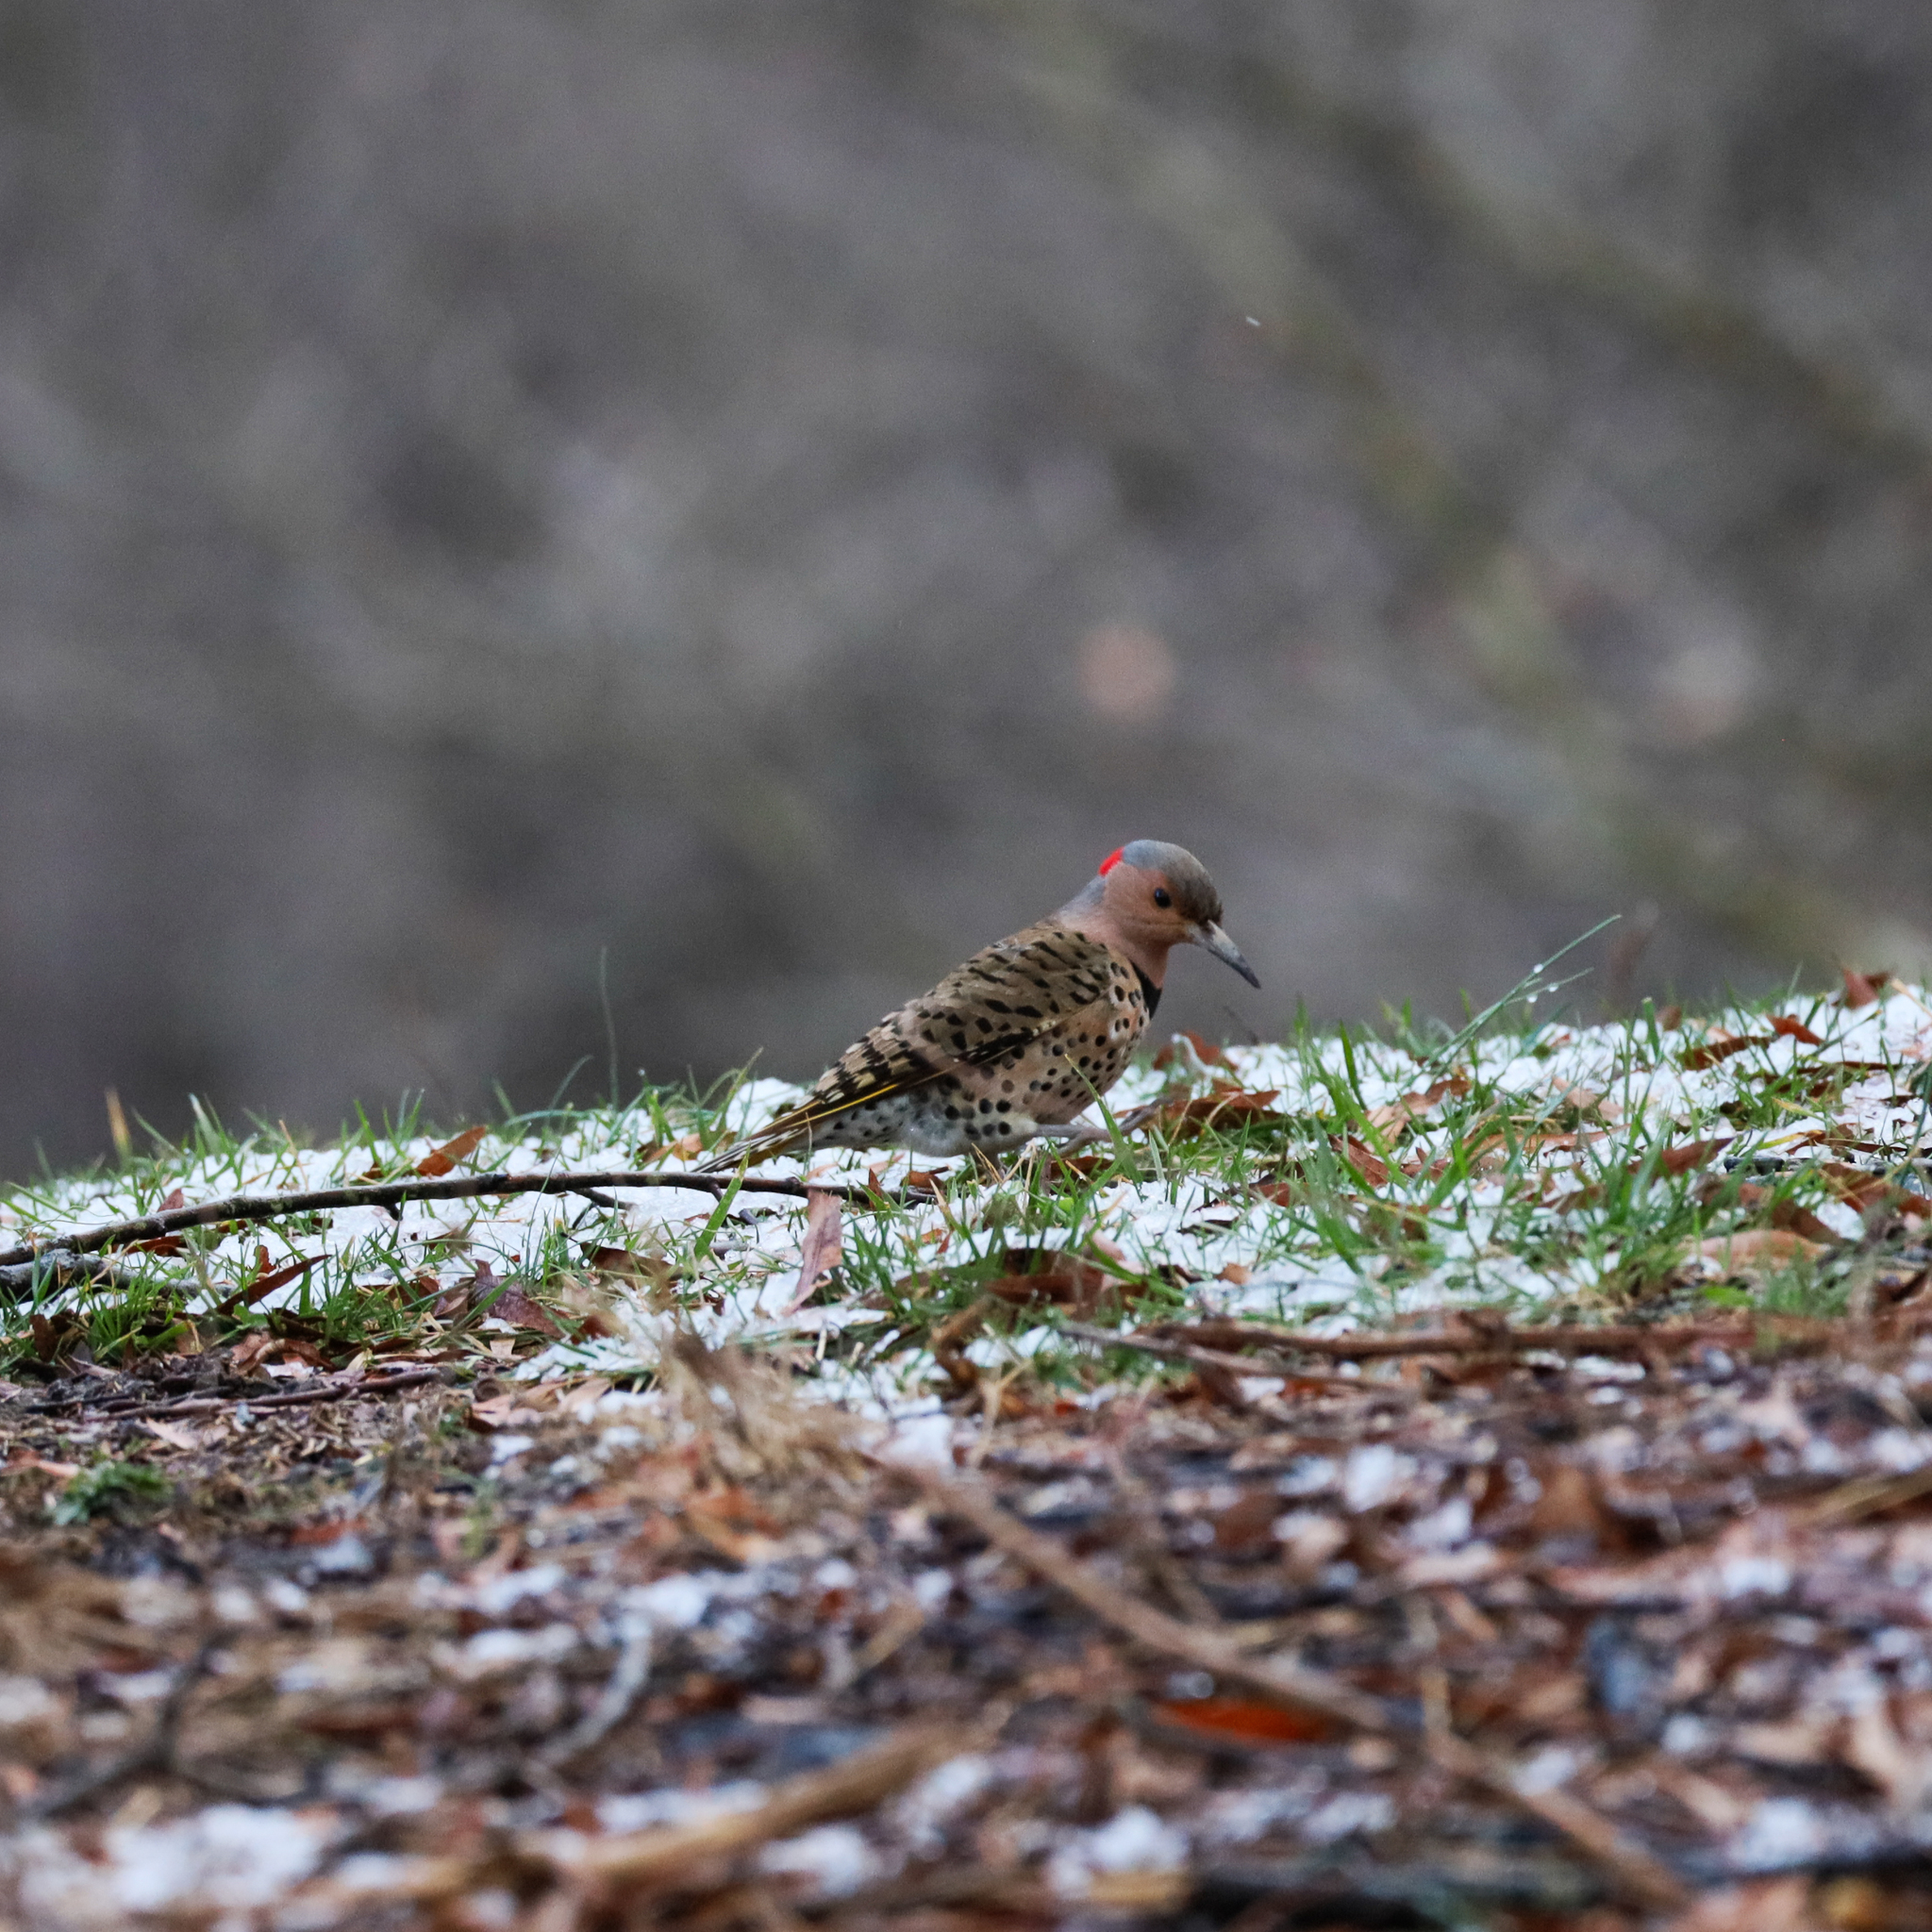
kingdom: Animalia
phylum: Chordata
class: Aves
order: Piciformes
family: Picidae
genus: Colaptes
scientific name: Colaptes auratus
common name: Northern flicker
